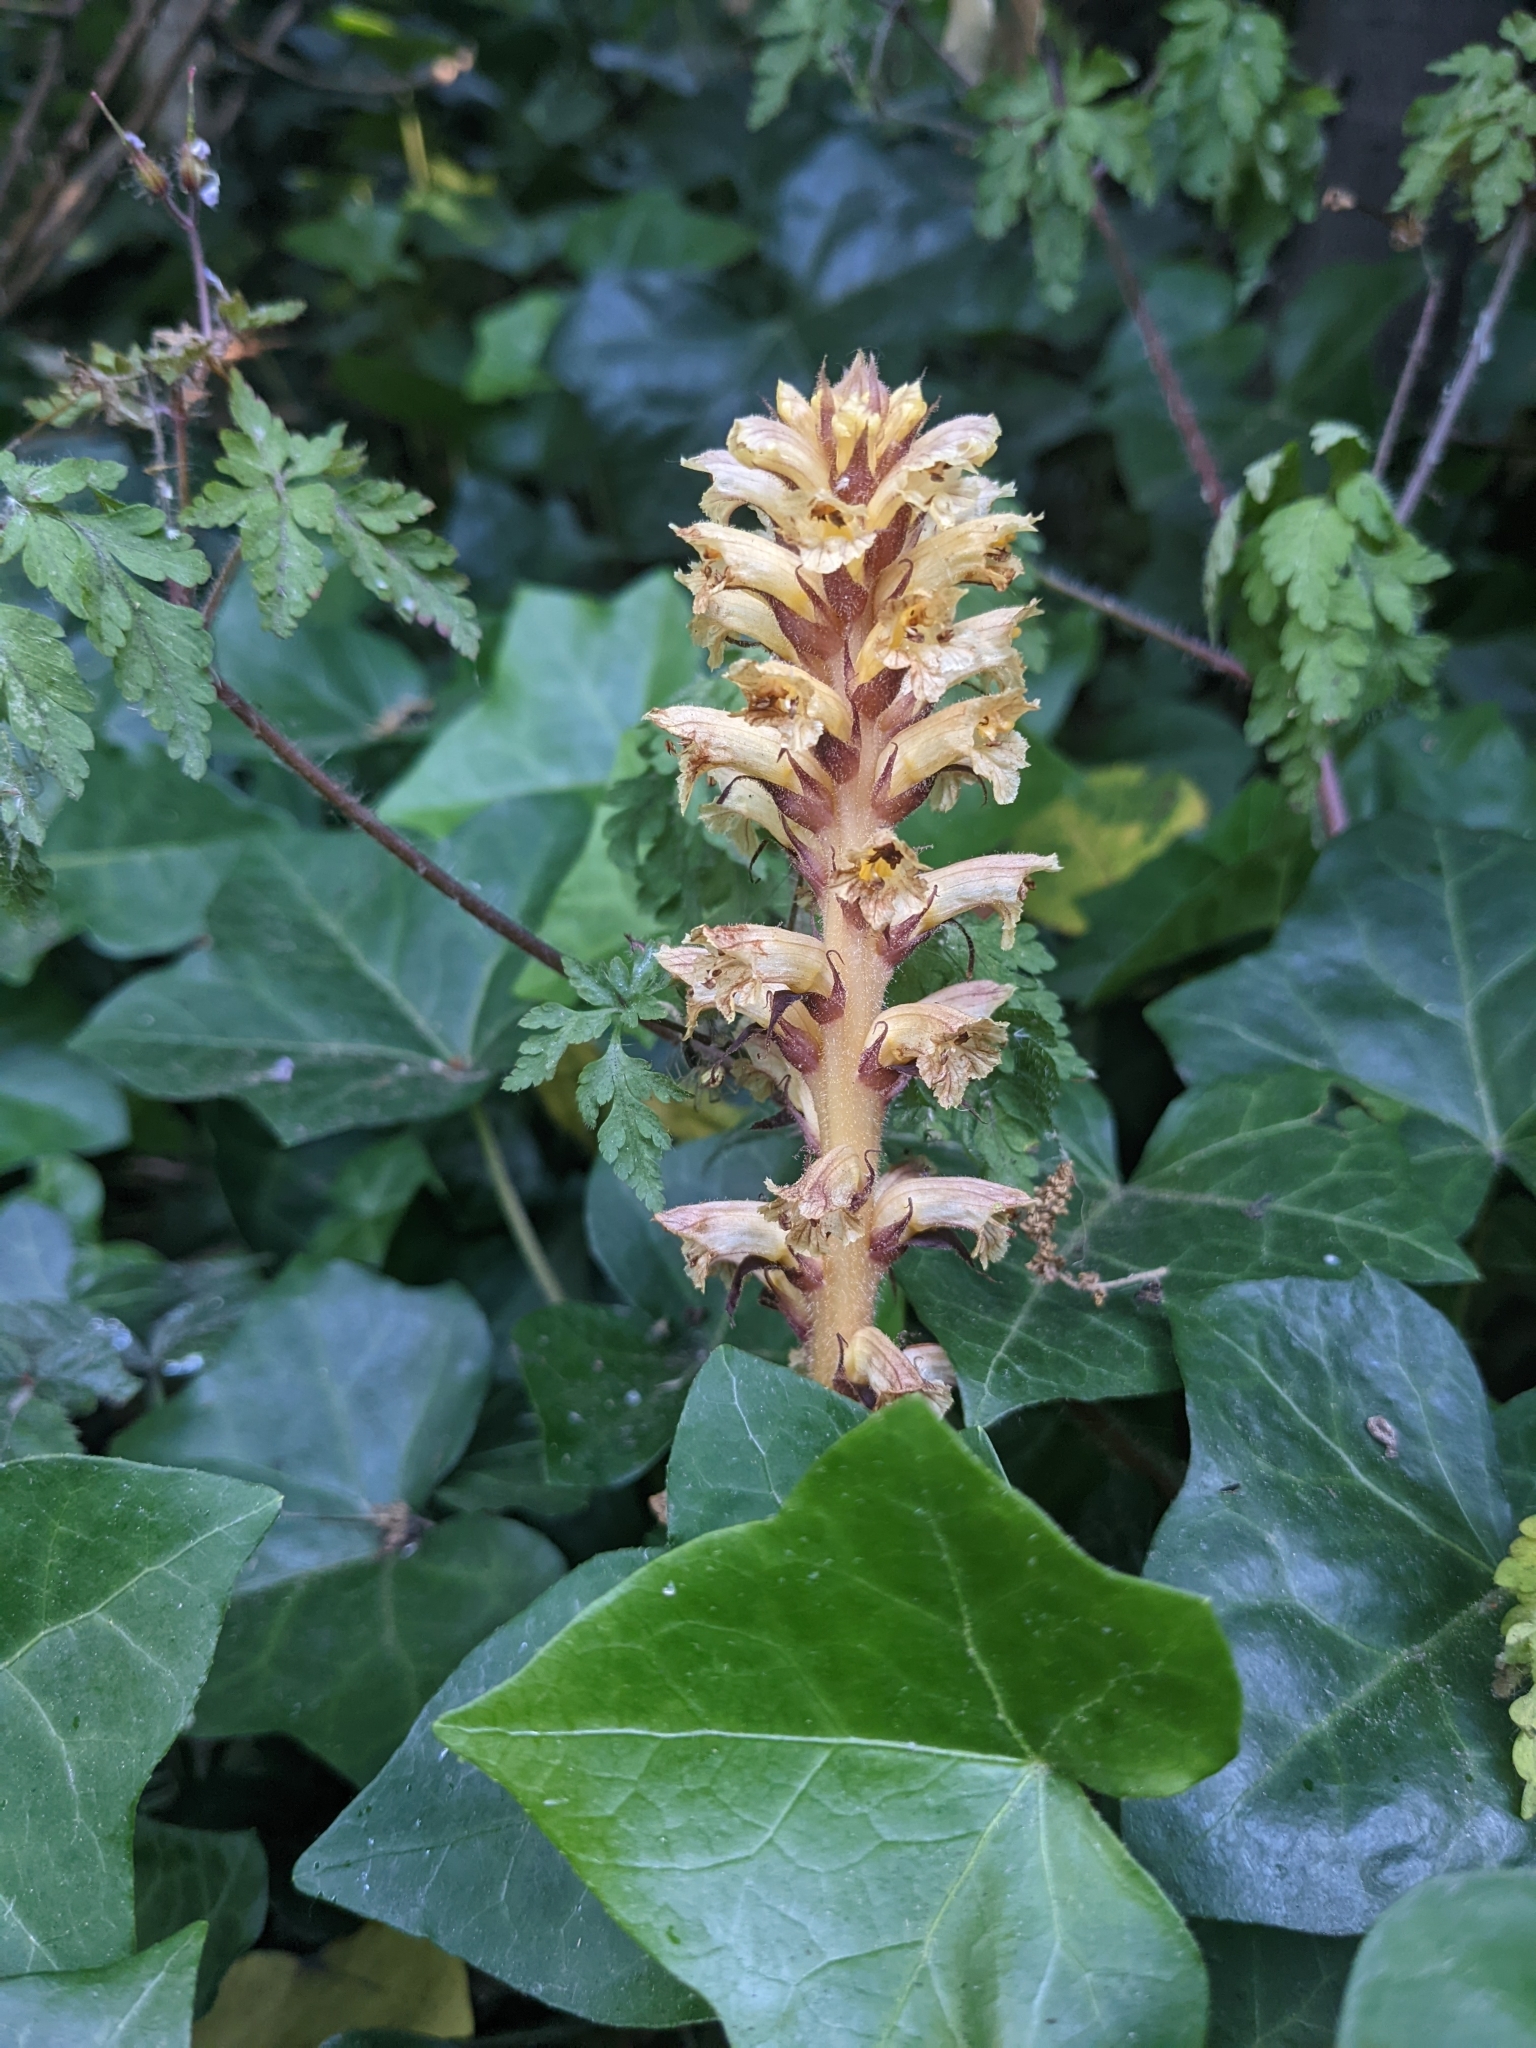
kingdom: Plantae
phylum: Tracheophyta
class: Magnoliopsida
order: Lamiales
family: Orobanchaceae
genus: Orobanche
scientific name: Orobanche hederae
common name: Ivy broomrape
